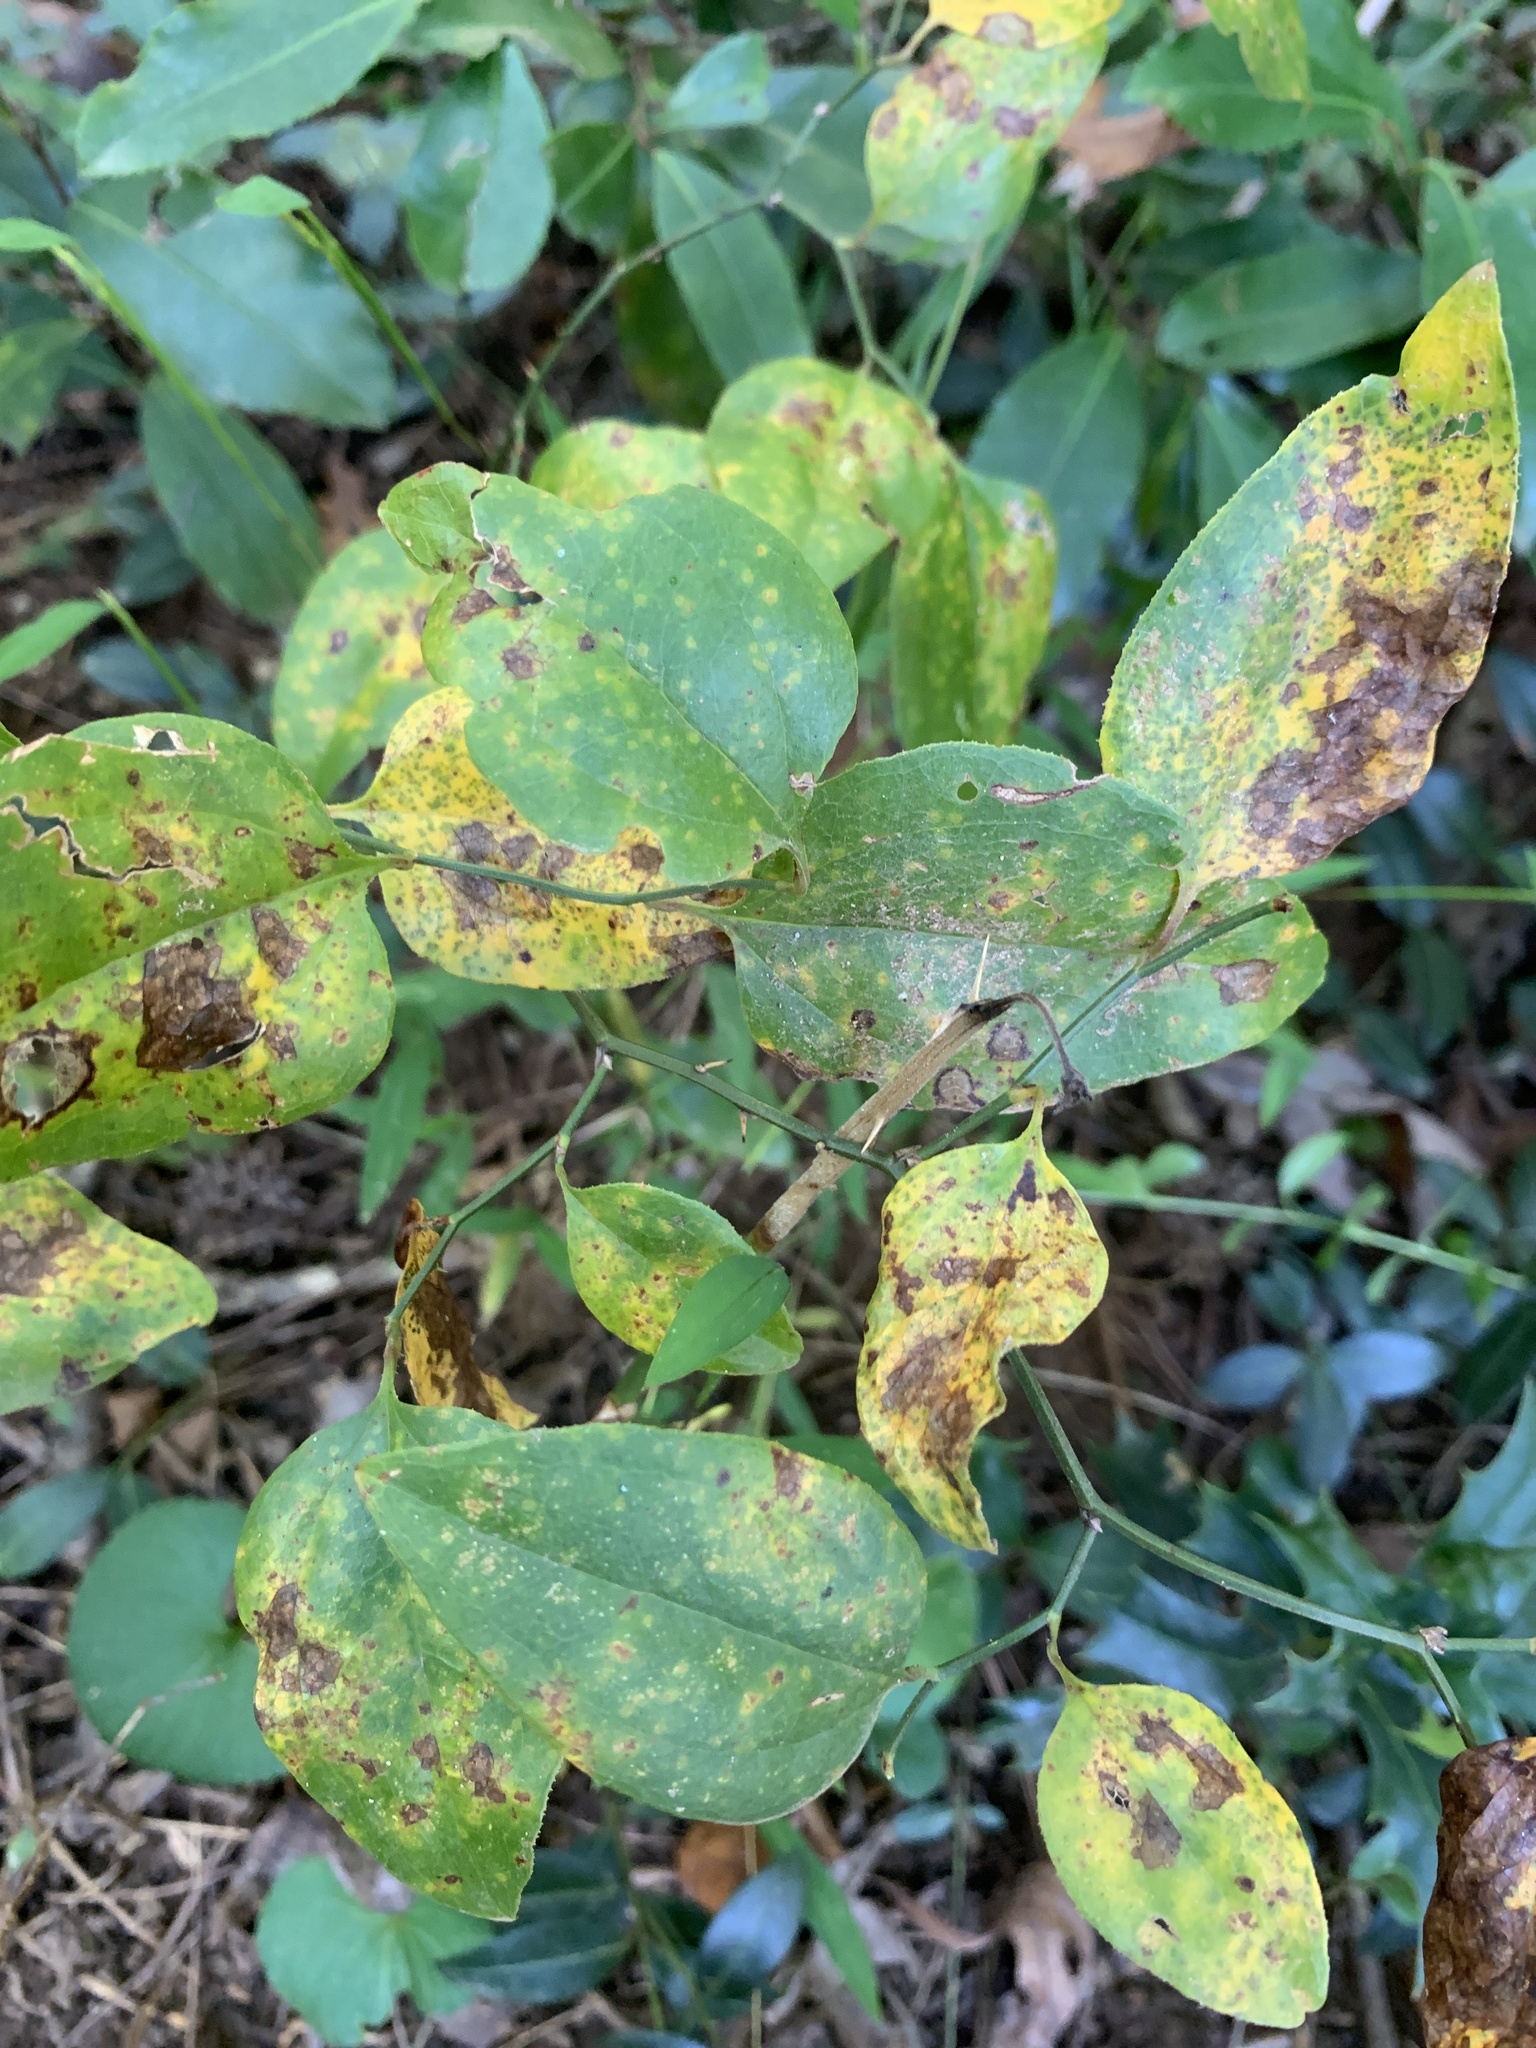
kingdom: Plantae
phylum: Tracheophyta
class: Liliopsida
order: Liliales
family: Smilacaceae
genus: Smilax
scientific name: Smilax rotundifolia
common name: Bullbriar
